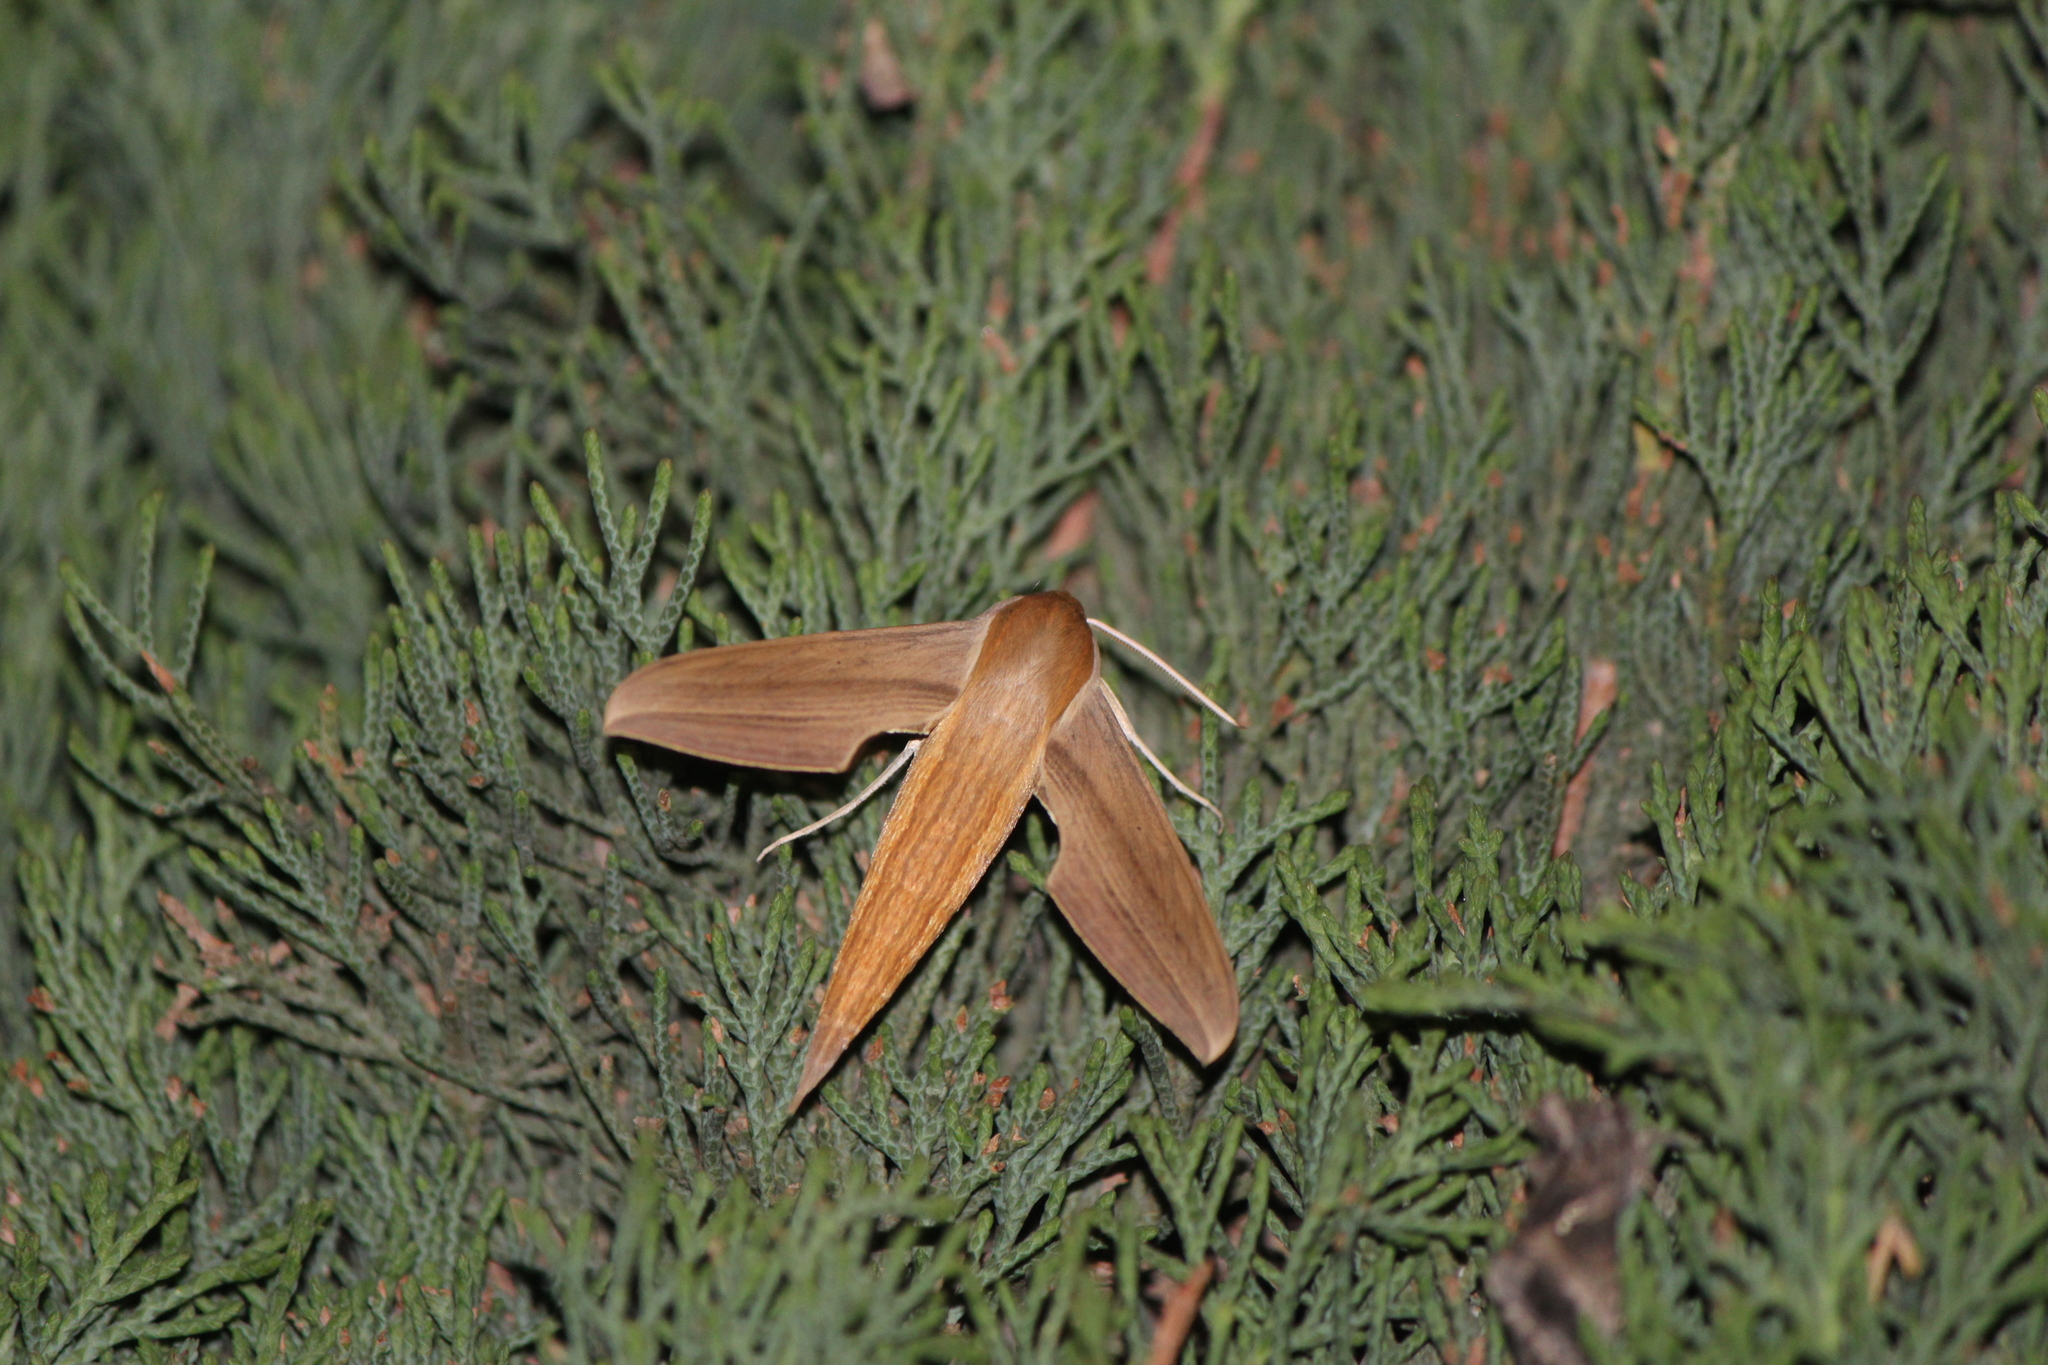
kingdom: Animalia
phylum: Arthropoda
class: Insecta
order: Lepidoptera
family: Sphingidae
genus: Xylophanes
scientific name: Xylophanes tersa
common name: Tersa sphinx
